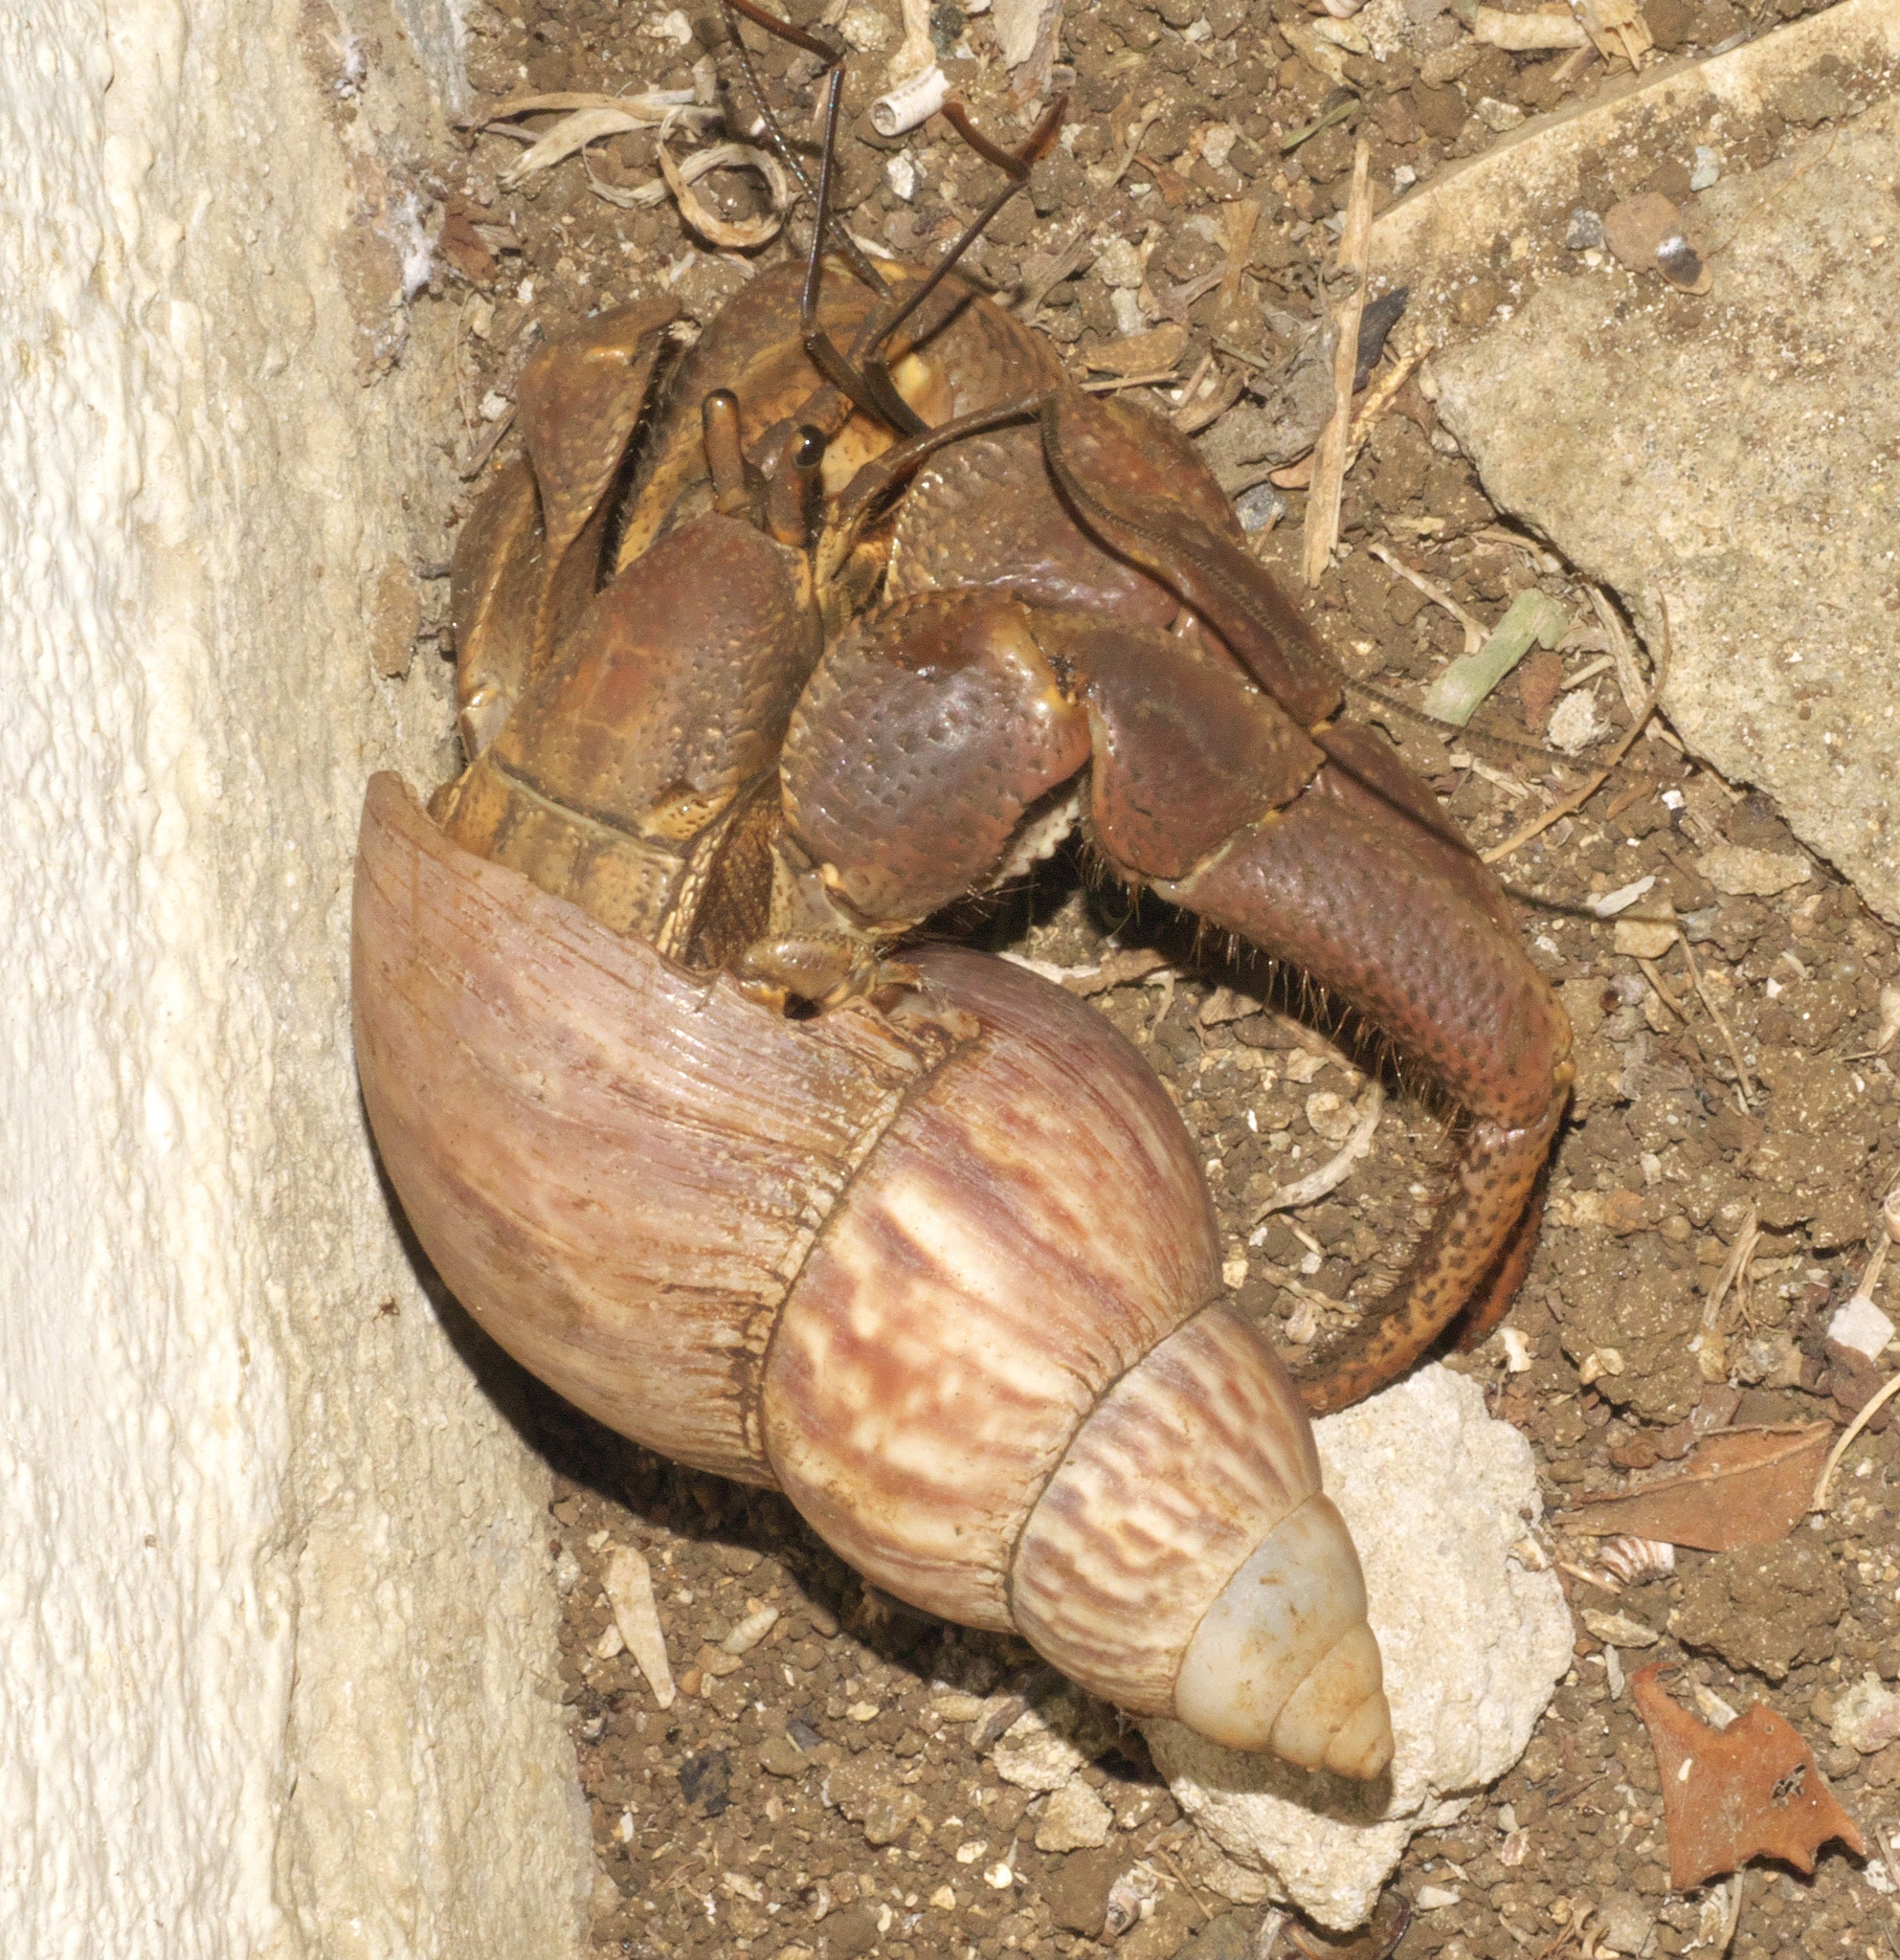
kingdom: Animalia
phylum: Arthropoda
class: Malacostraca
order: Decapoda
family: Coenobitidae
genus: Coenobita
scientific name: Coenobita brevimanus
